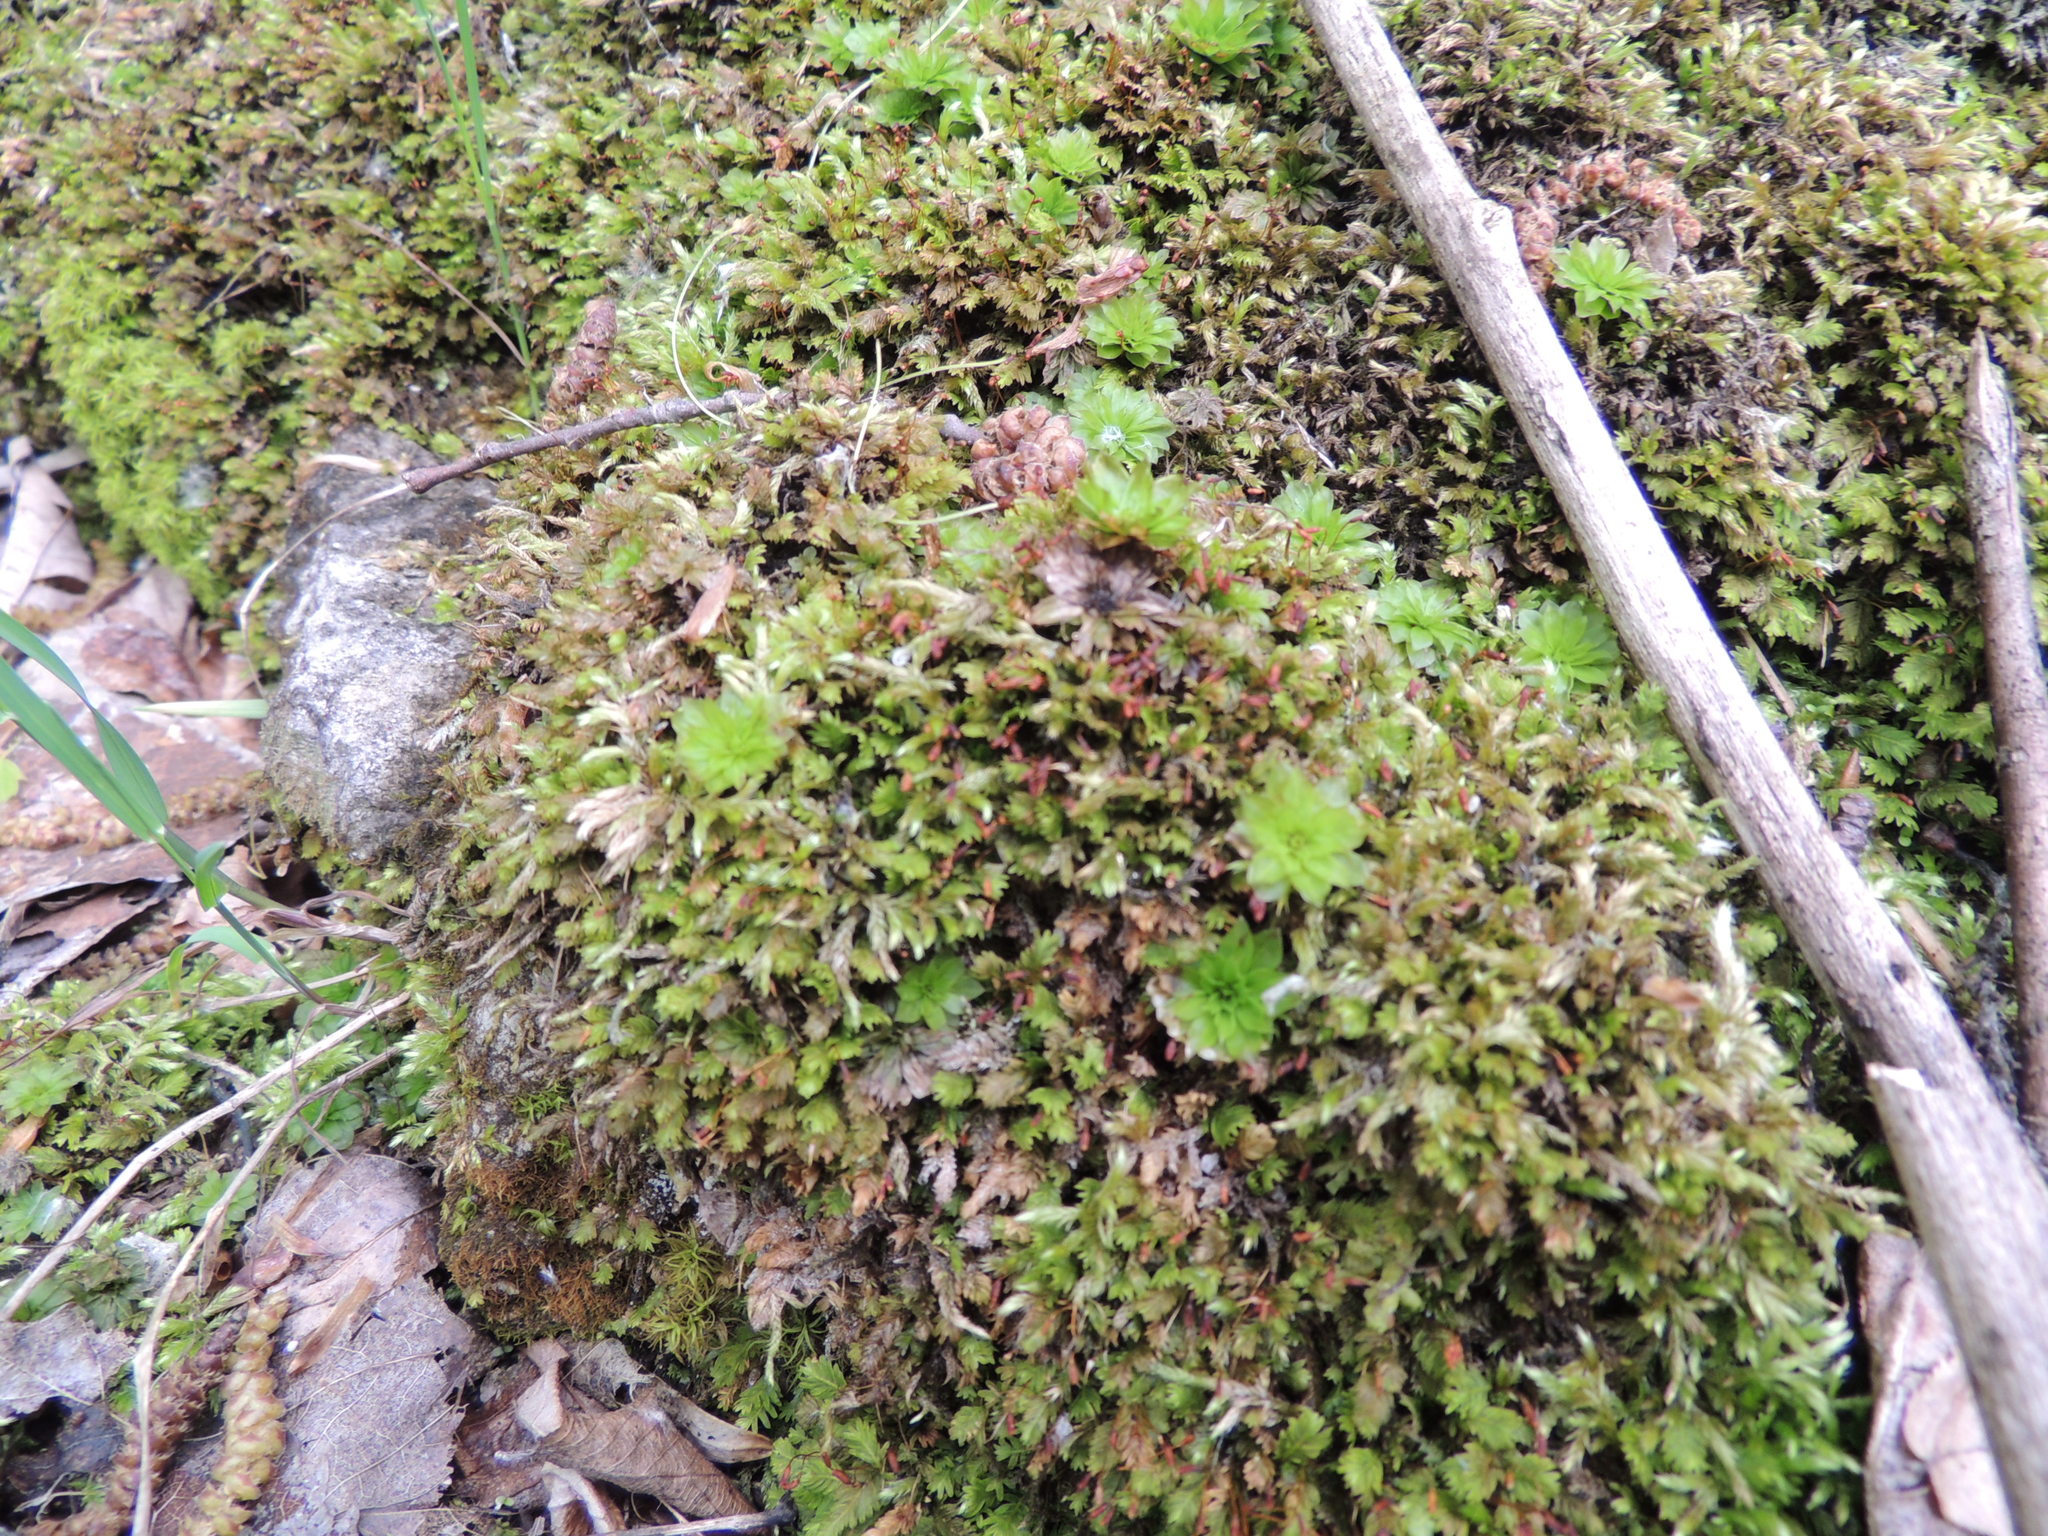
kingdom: Plantae
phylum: Bryophyta
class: Bryopsida
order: Bryales
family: Bryaceae
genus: Rhodobryum
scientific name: Rhodobryum ontariense
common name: Ontario rhodobryum moss
